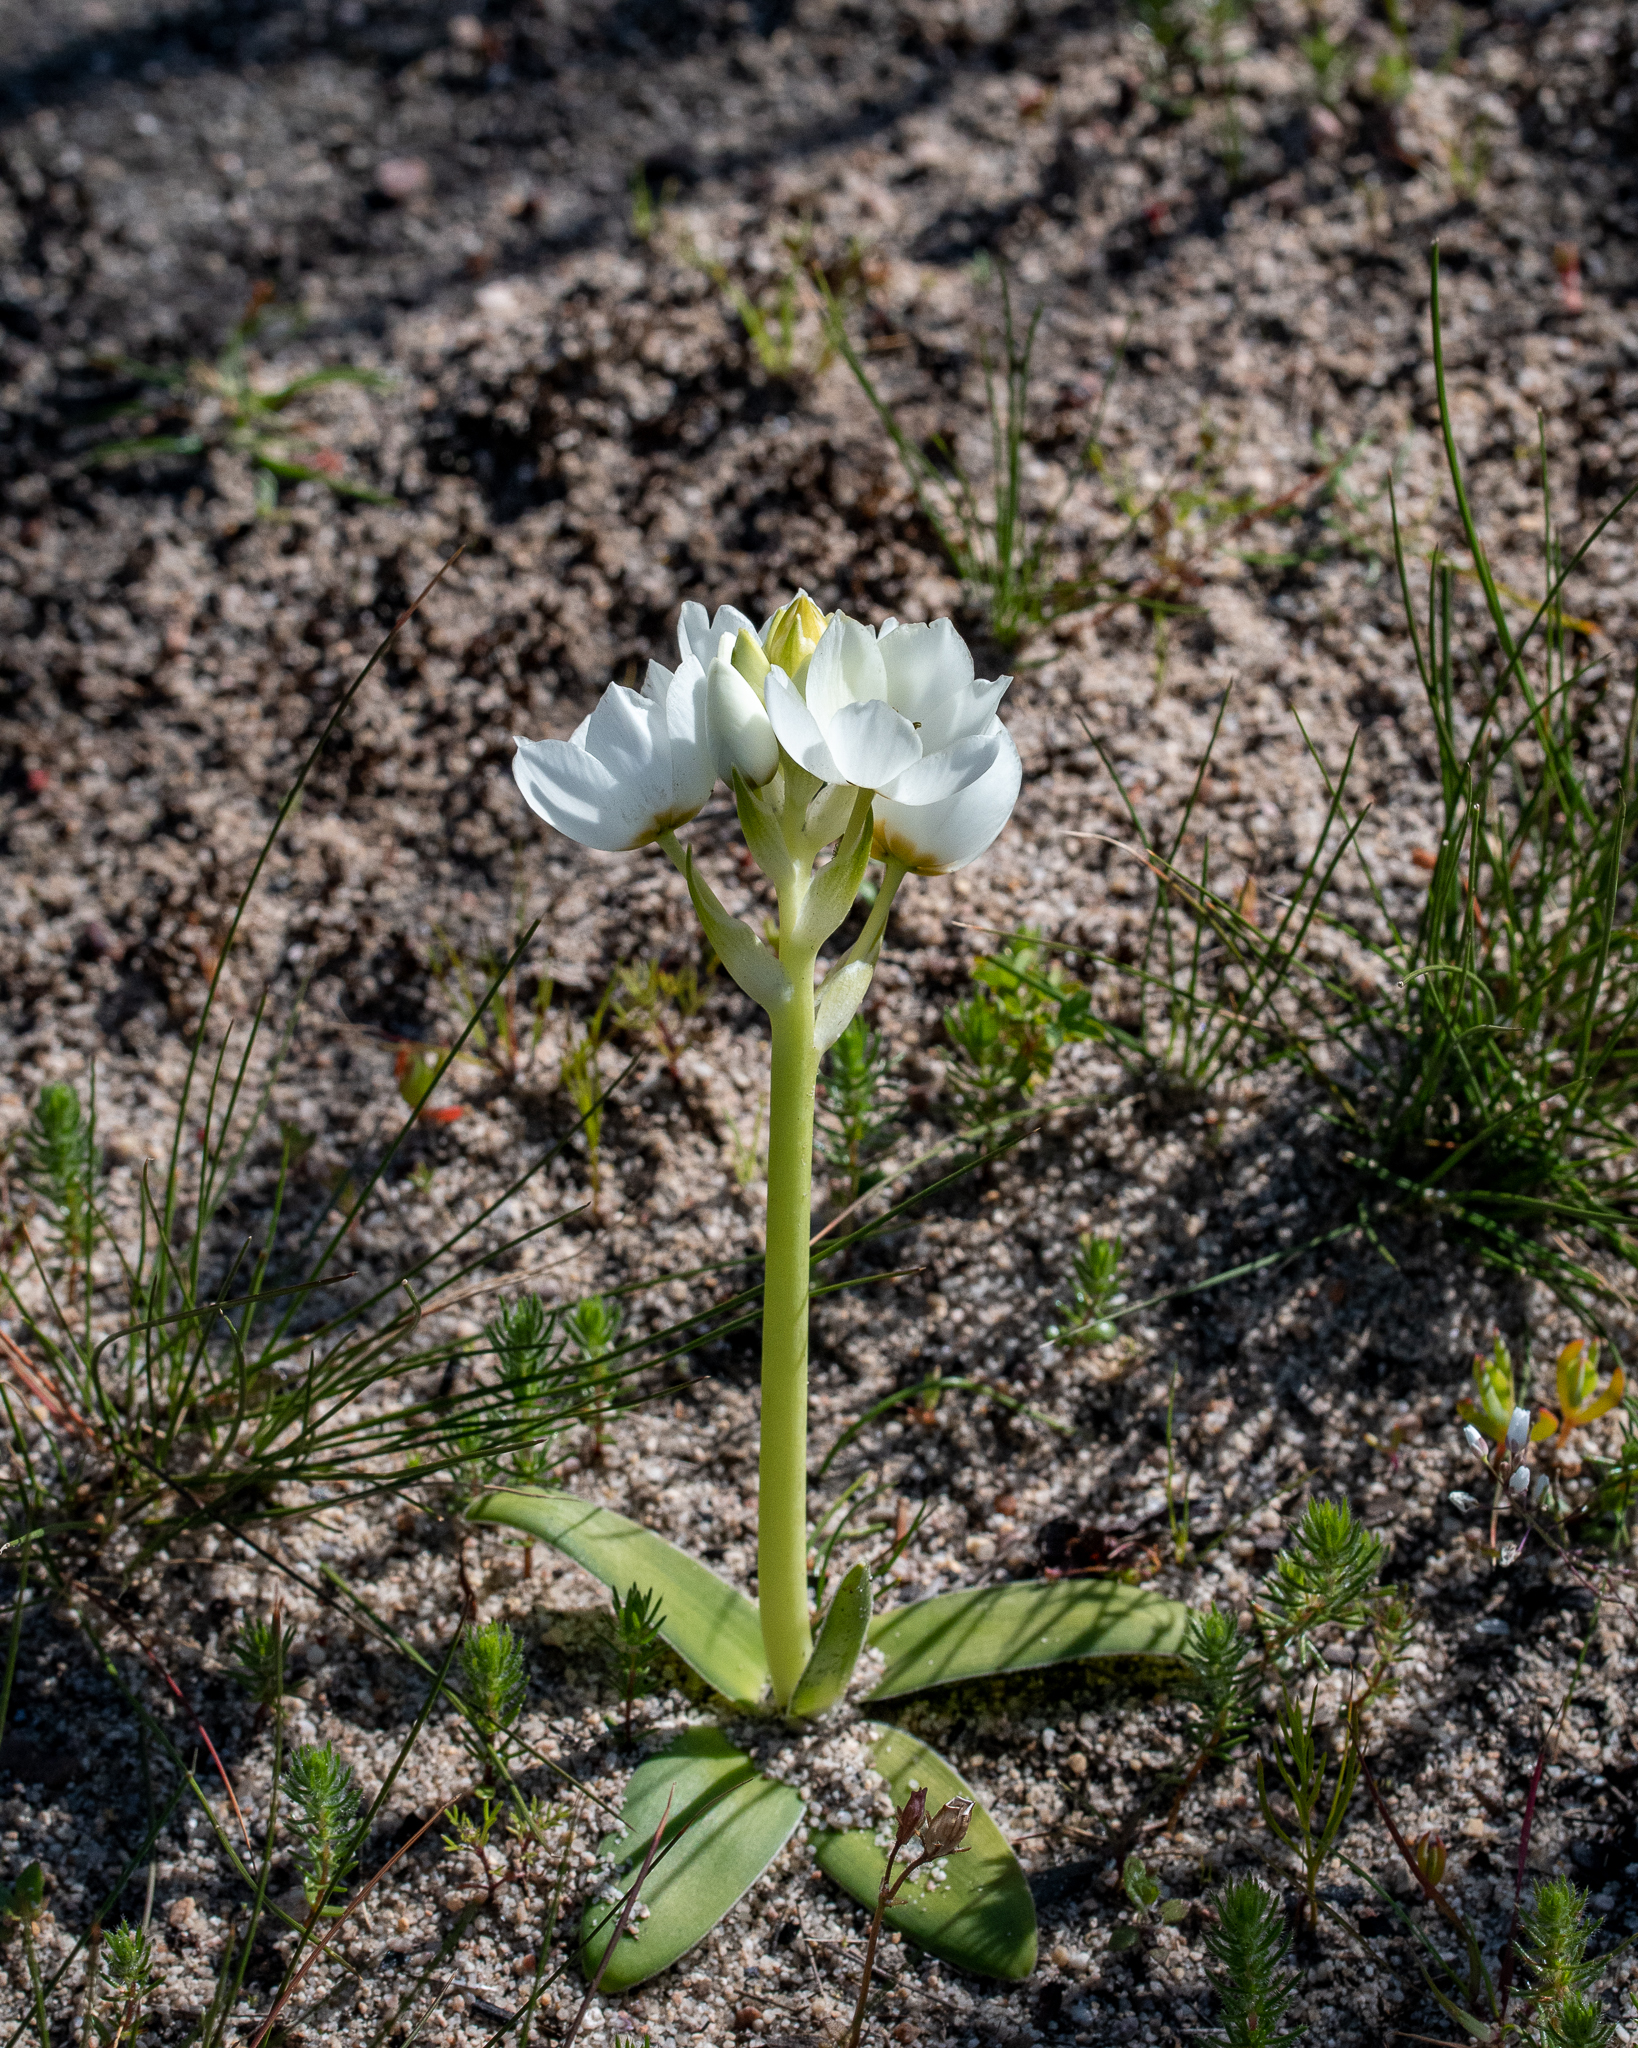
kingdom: Plantae
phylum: Tracheophyta
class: Liliopsida
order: Asparagales
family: Asparagaceae
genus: Ornithogalum
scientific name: Ornithogalum thyrsoides
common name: Chincherinchee
